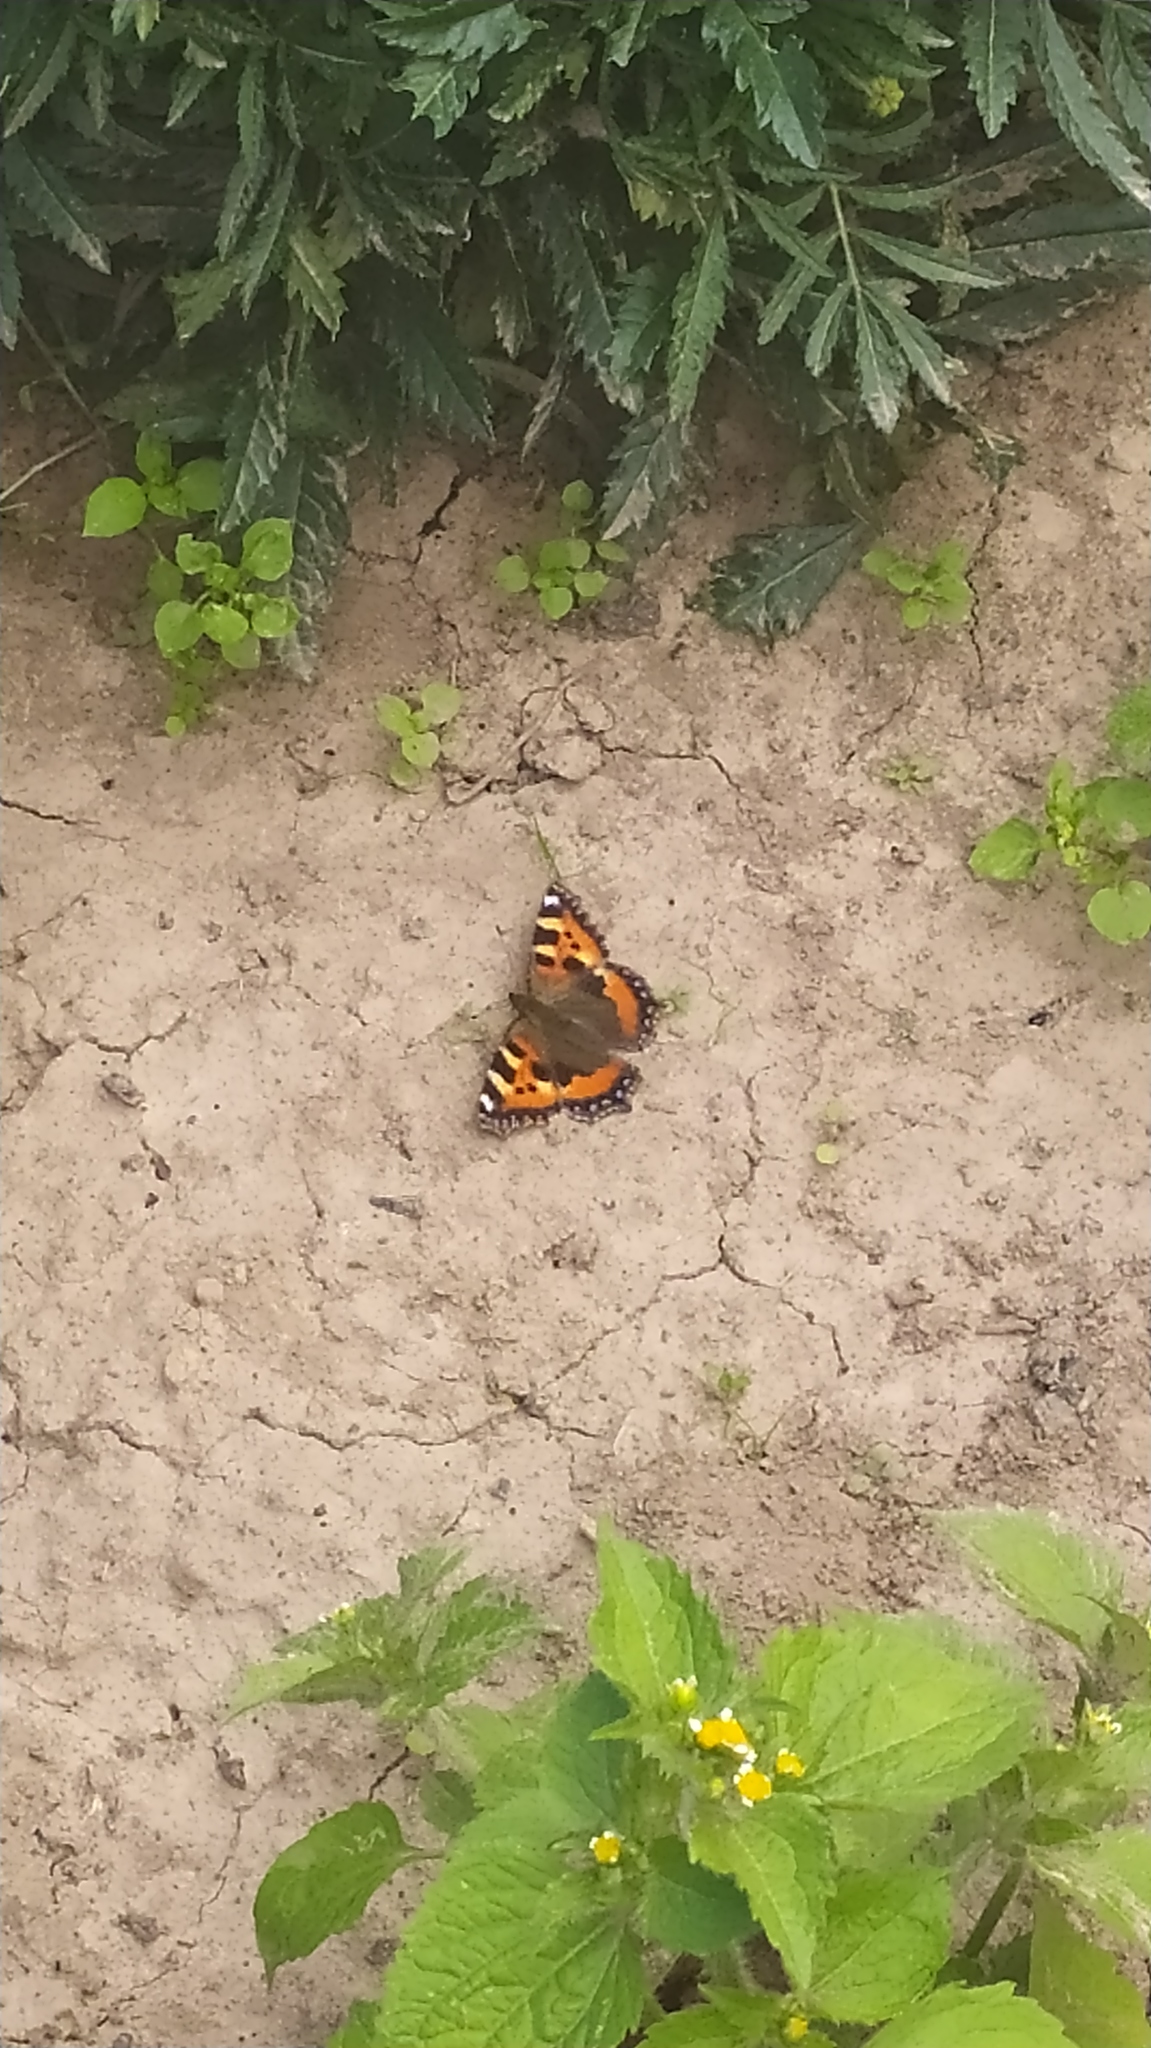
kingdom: Animalia
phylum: Arthropoda
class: Insecta
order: Lepidoptera
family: Nymphalidae
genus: Aglais
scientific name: Aglais urticae
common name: Small tortoiseshell
